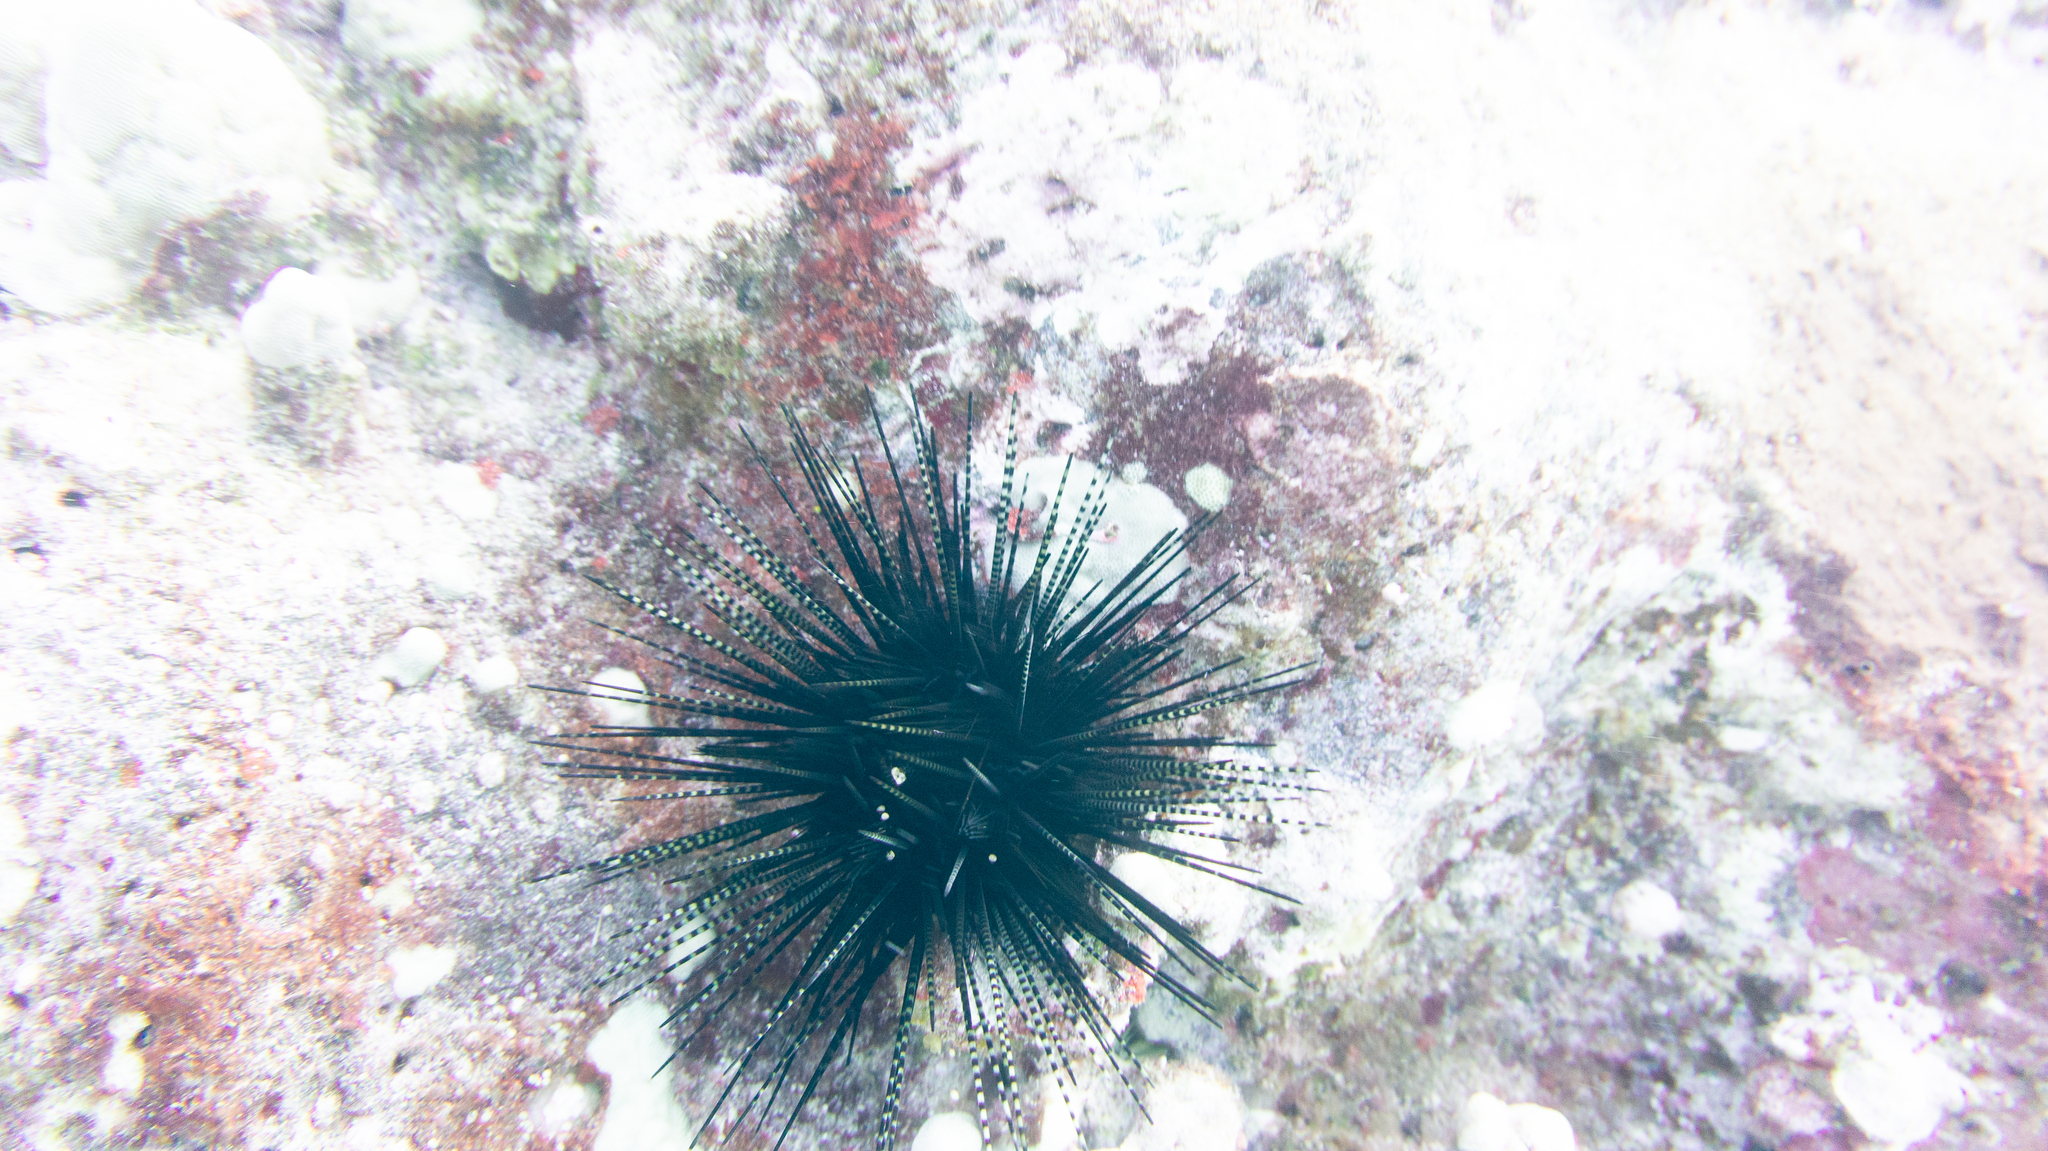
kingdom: Animalia
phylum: Echinodermata
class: Echinoidea
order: Diadematoida
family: Diadematidae
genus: Echinothrix
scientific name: Echinothrix calamaris
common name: Banded sea urchin
